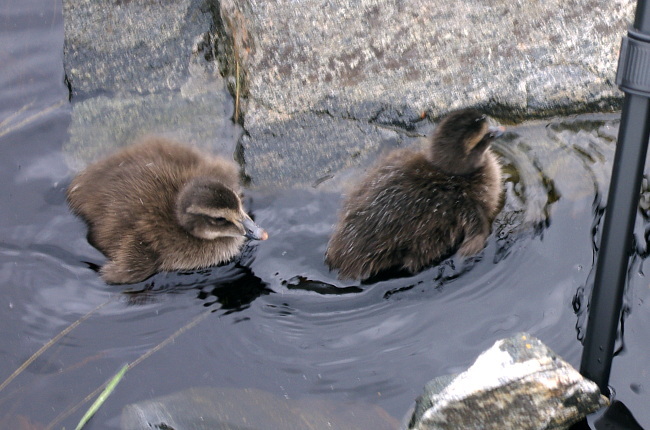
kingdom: Animalia
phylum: Chordata
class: Aves
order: Anseriformes
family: Anatidae
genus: Somateria
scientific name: Somateria mollissima
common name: Common eider
